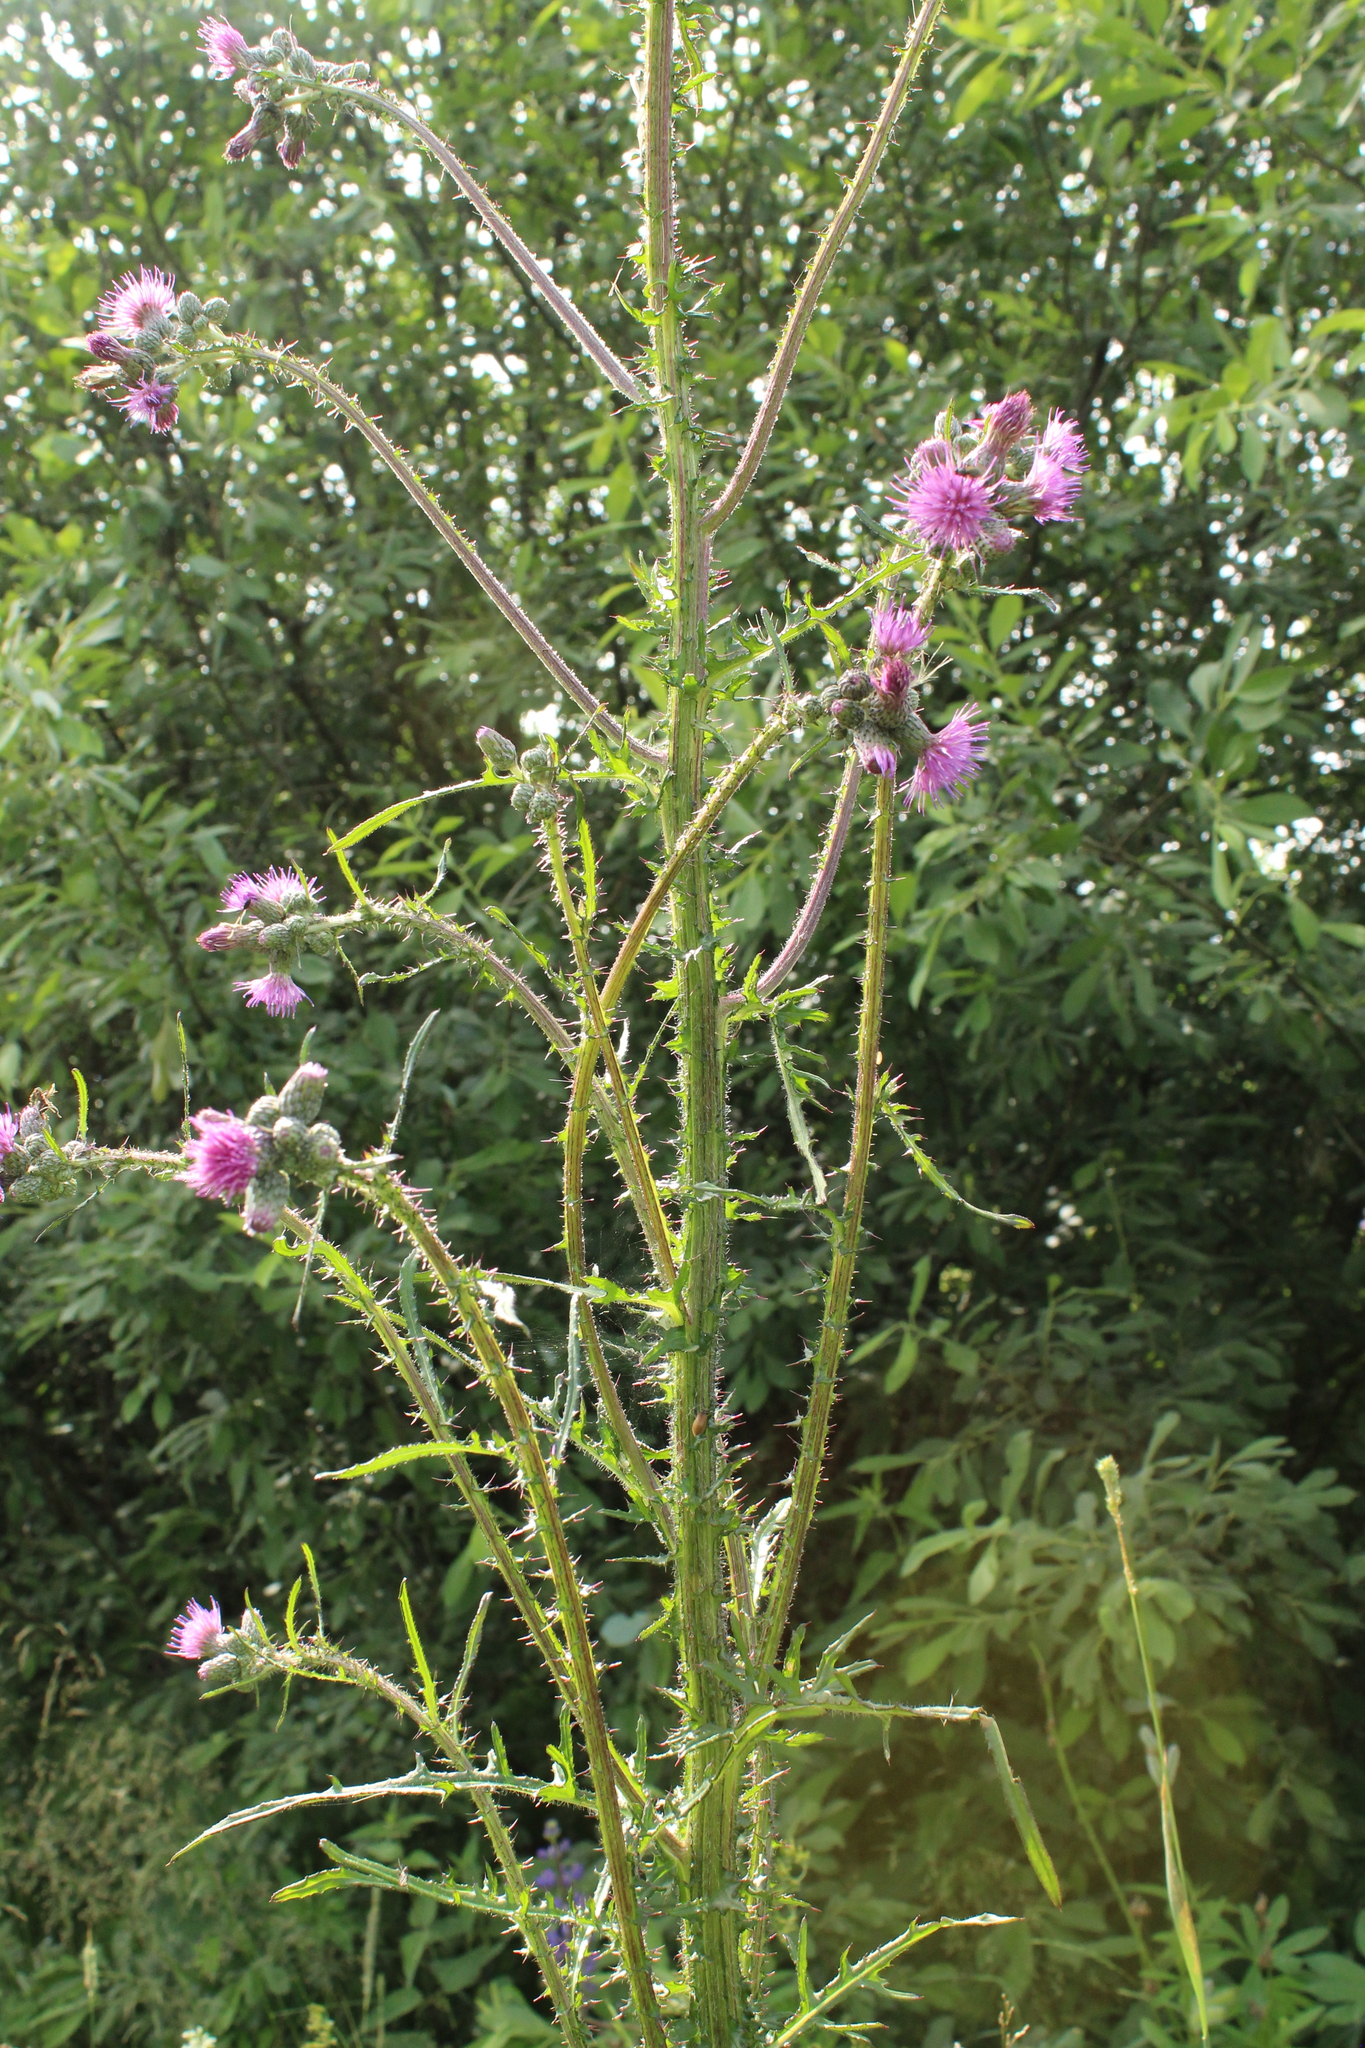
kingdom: Plantae
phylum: Tracheophyta
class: Magnoliopsida
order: Asterales
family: Asteraceae
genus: Cirsium
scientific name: Cirsium palustre
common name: Marsh thistle
